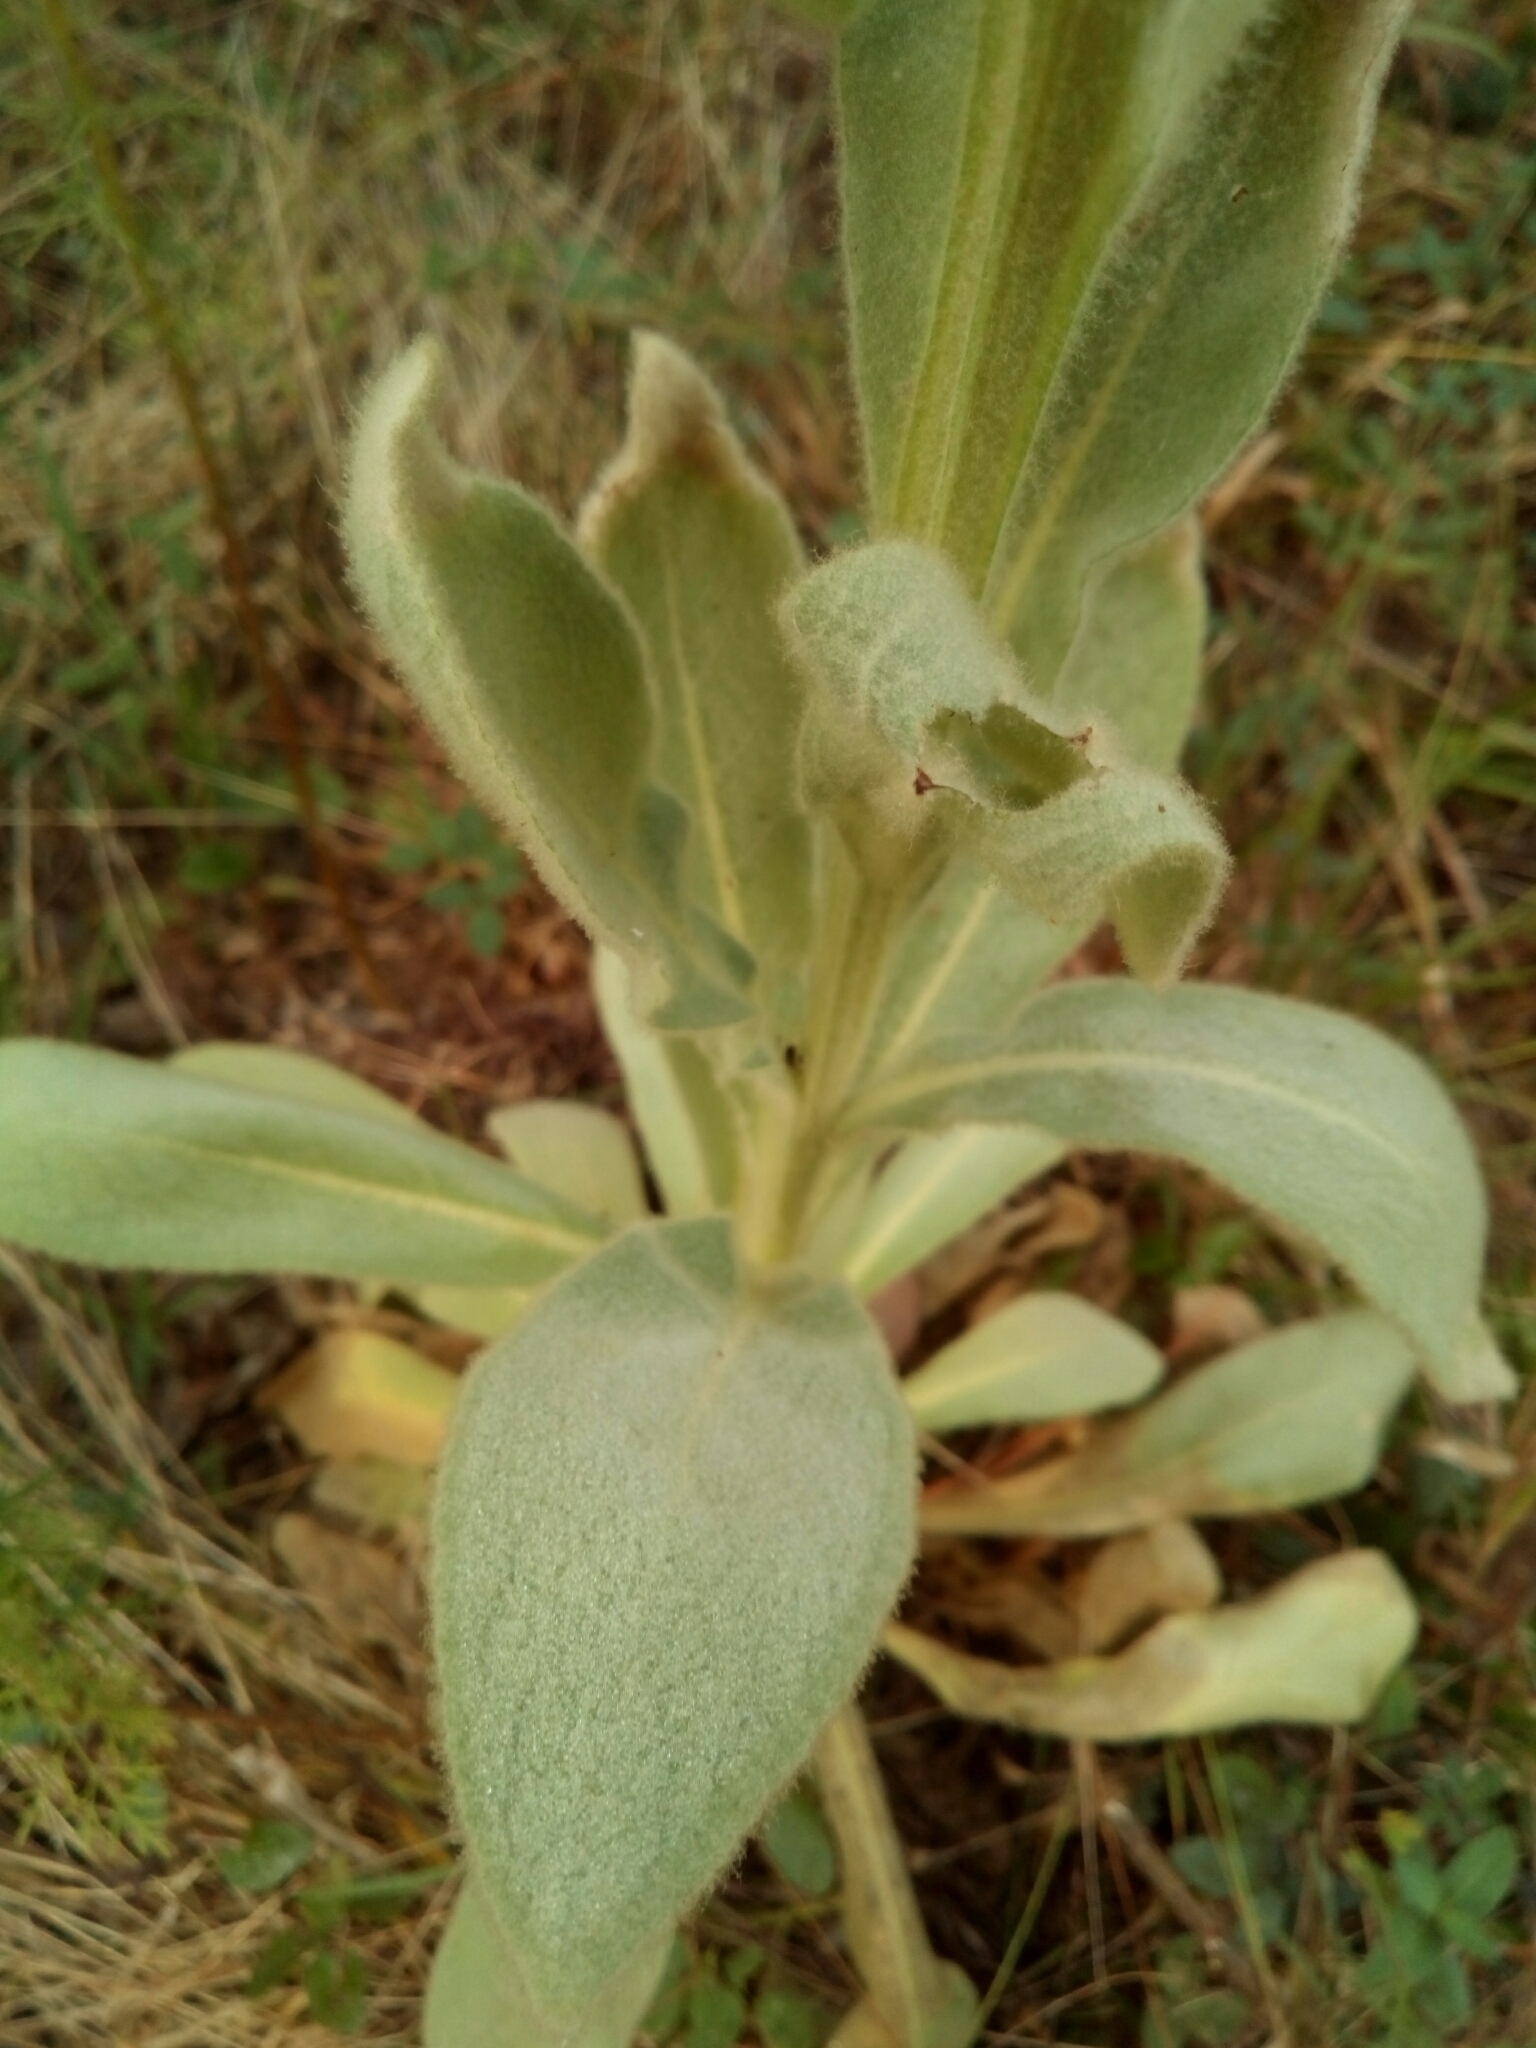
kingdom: Plantae
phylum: Tracheophyta
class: Magnoliopsida
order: Lamiales
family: Scrophulariaceae
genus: Verbascum
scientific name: Verbascum thapsus
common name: Common mullein
